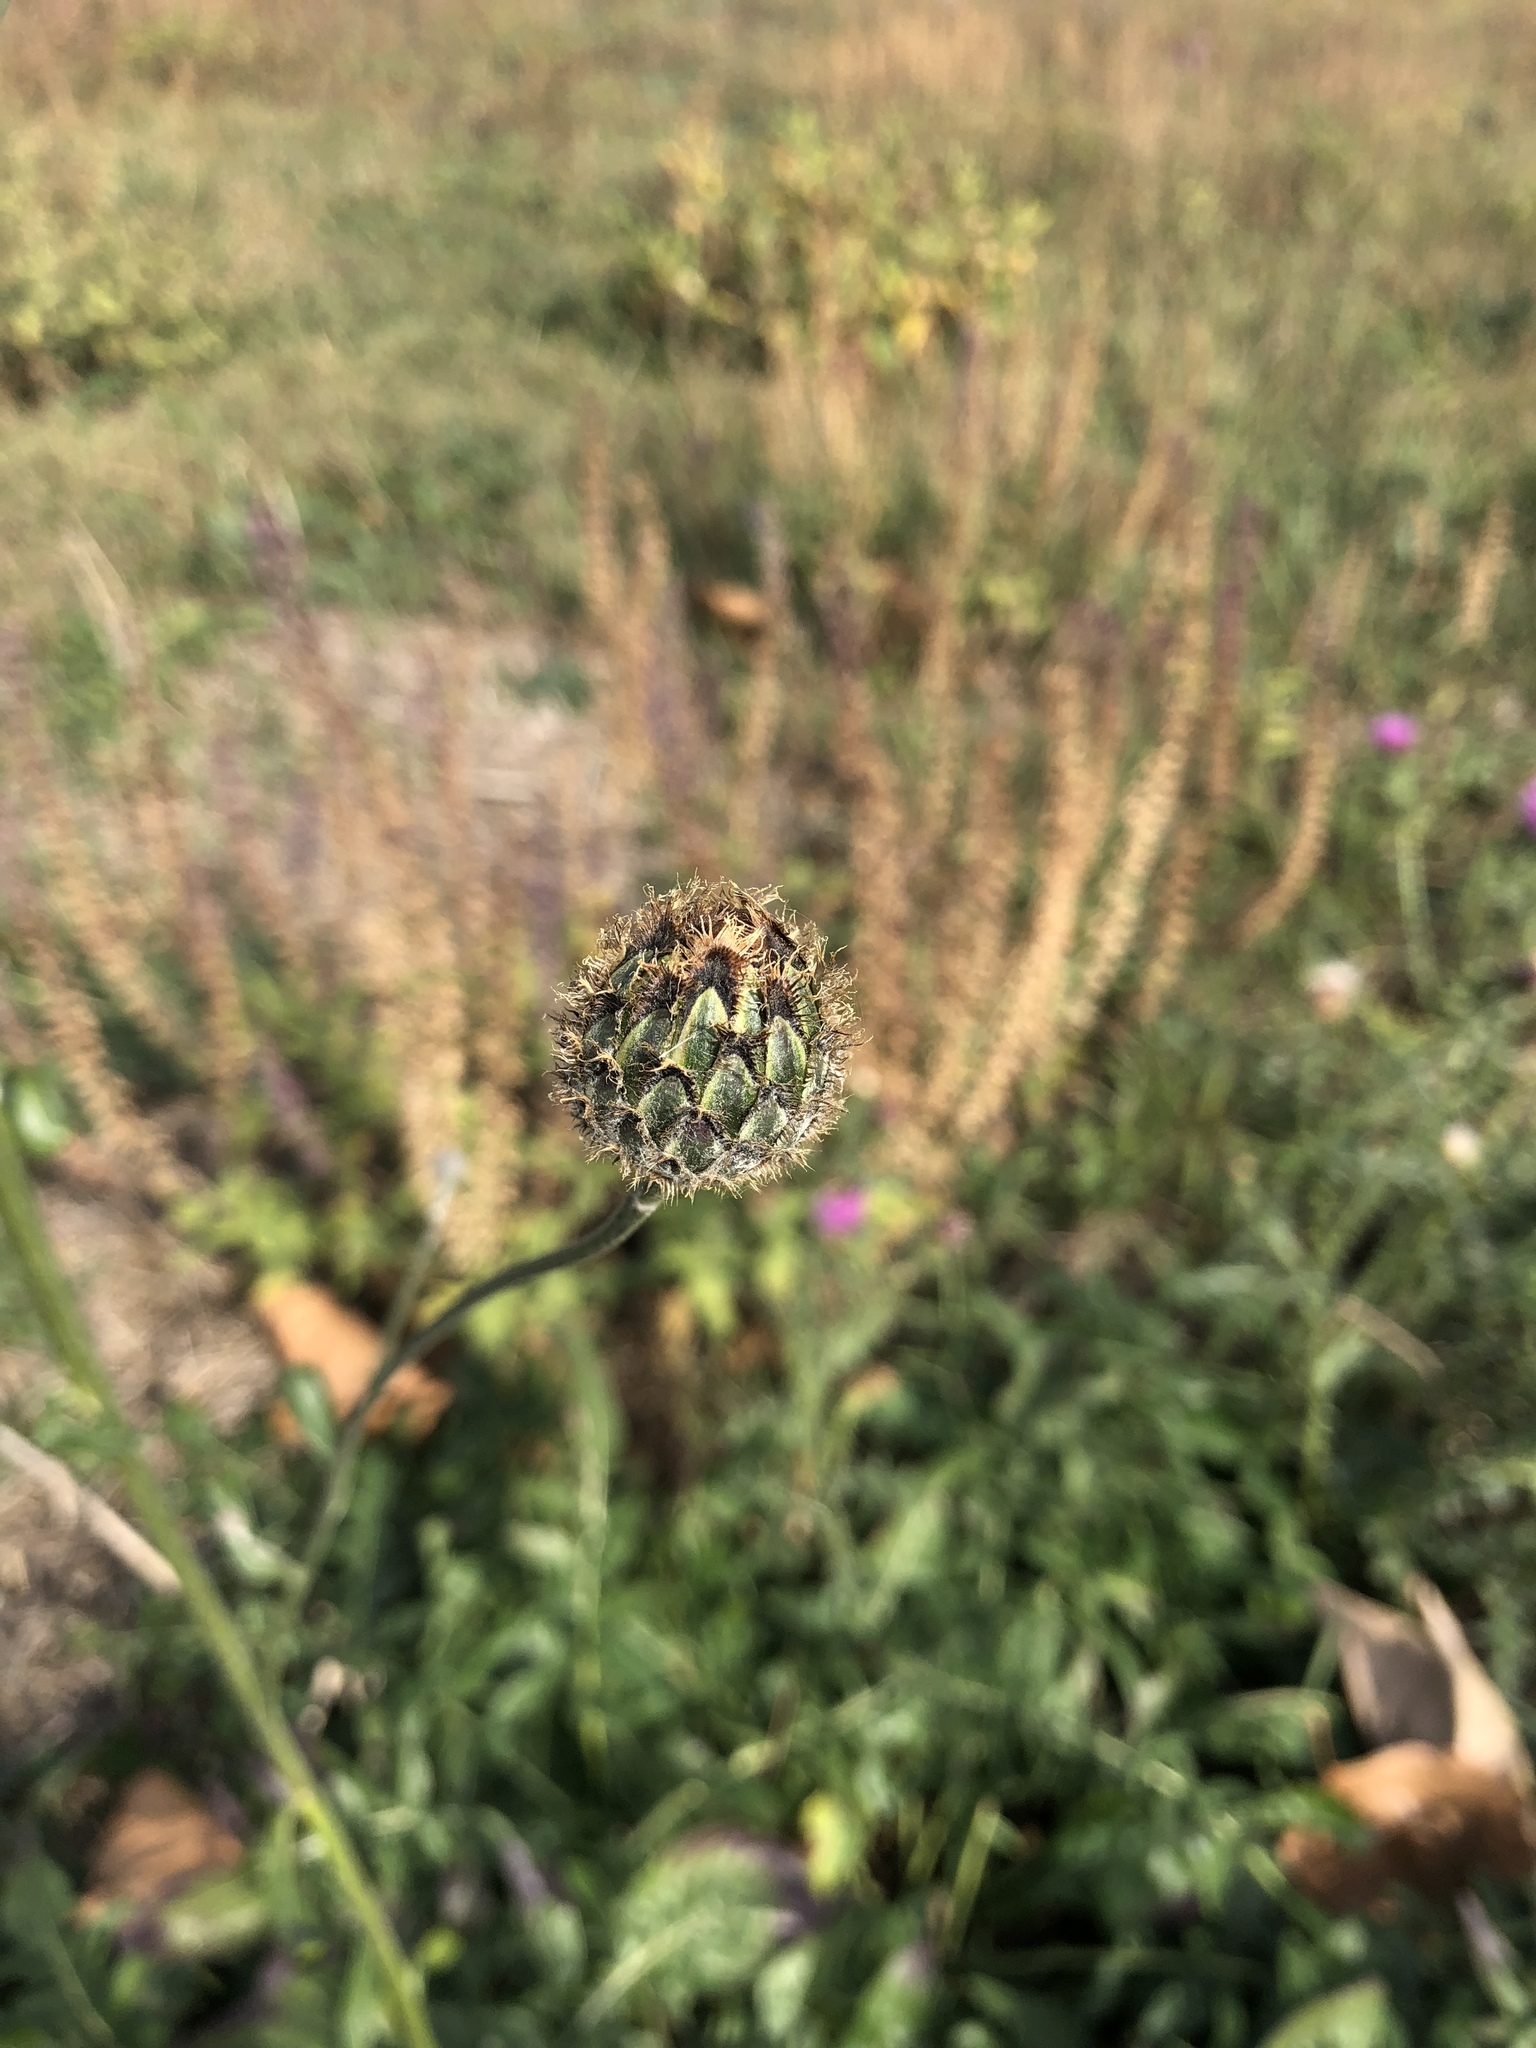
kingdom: Plantae
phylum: Tracheophyta
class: Magnoliopsida
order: Asterales
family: Asteraceae
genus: Centaurea
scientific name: Centaurea scabiosa
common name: Greater knapweed
